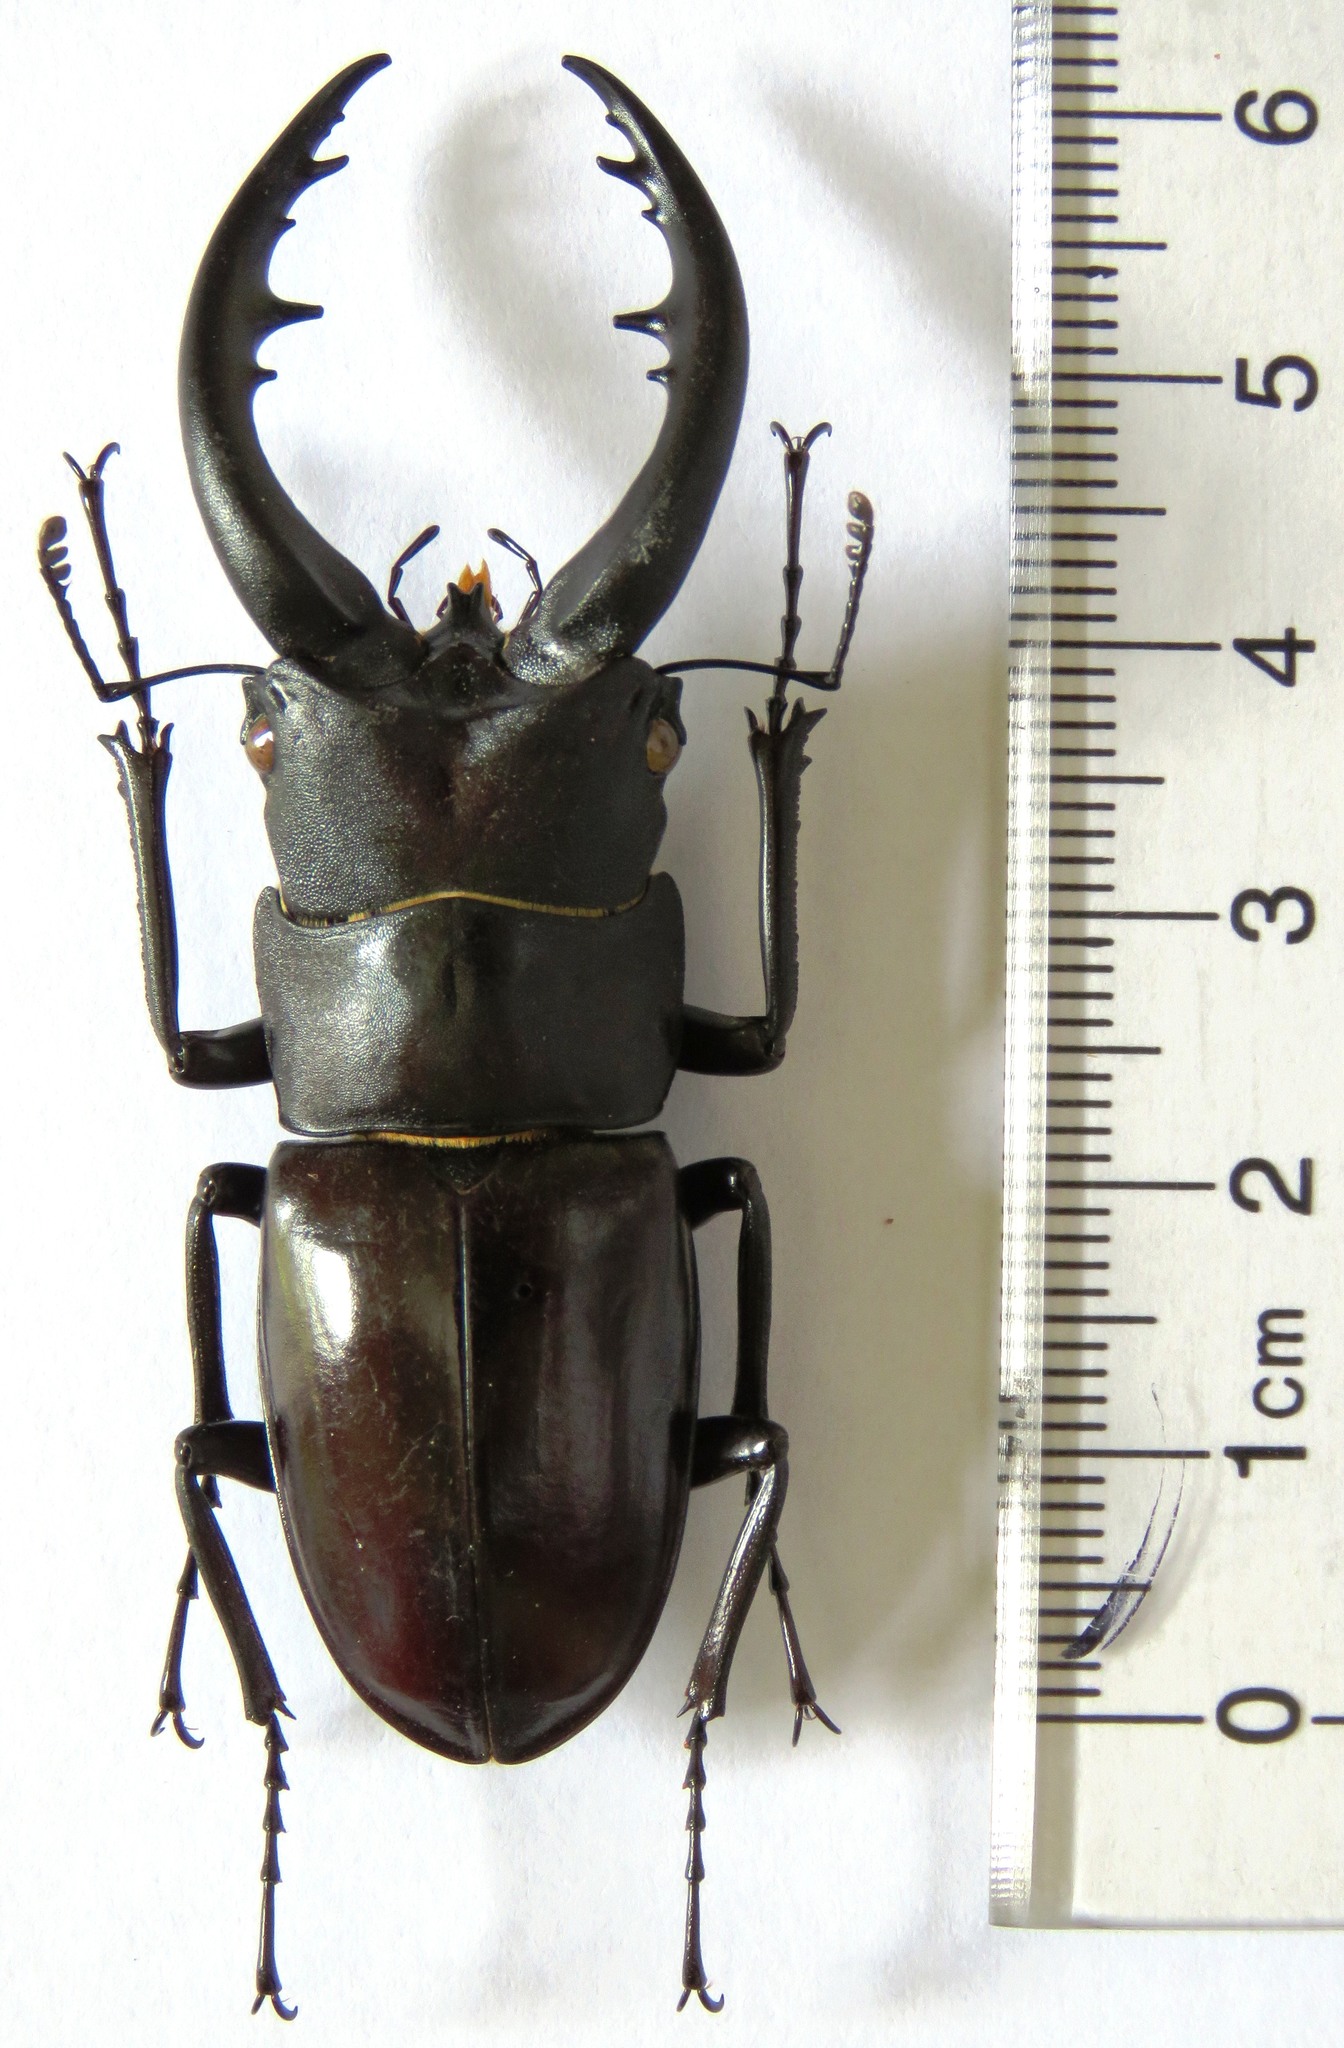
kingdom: Animalia
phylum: Arthropoda
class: Insecta
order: Coleoptera
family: Lucanidae
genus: Prosopocoilus
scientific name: Prosopocoilus dissimilis
